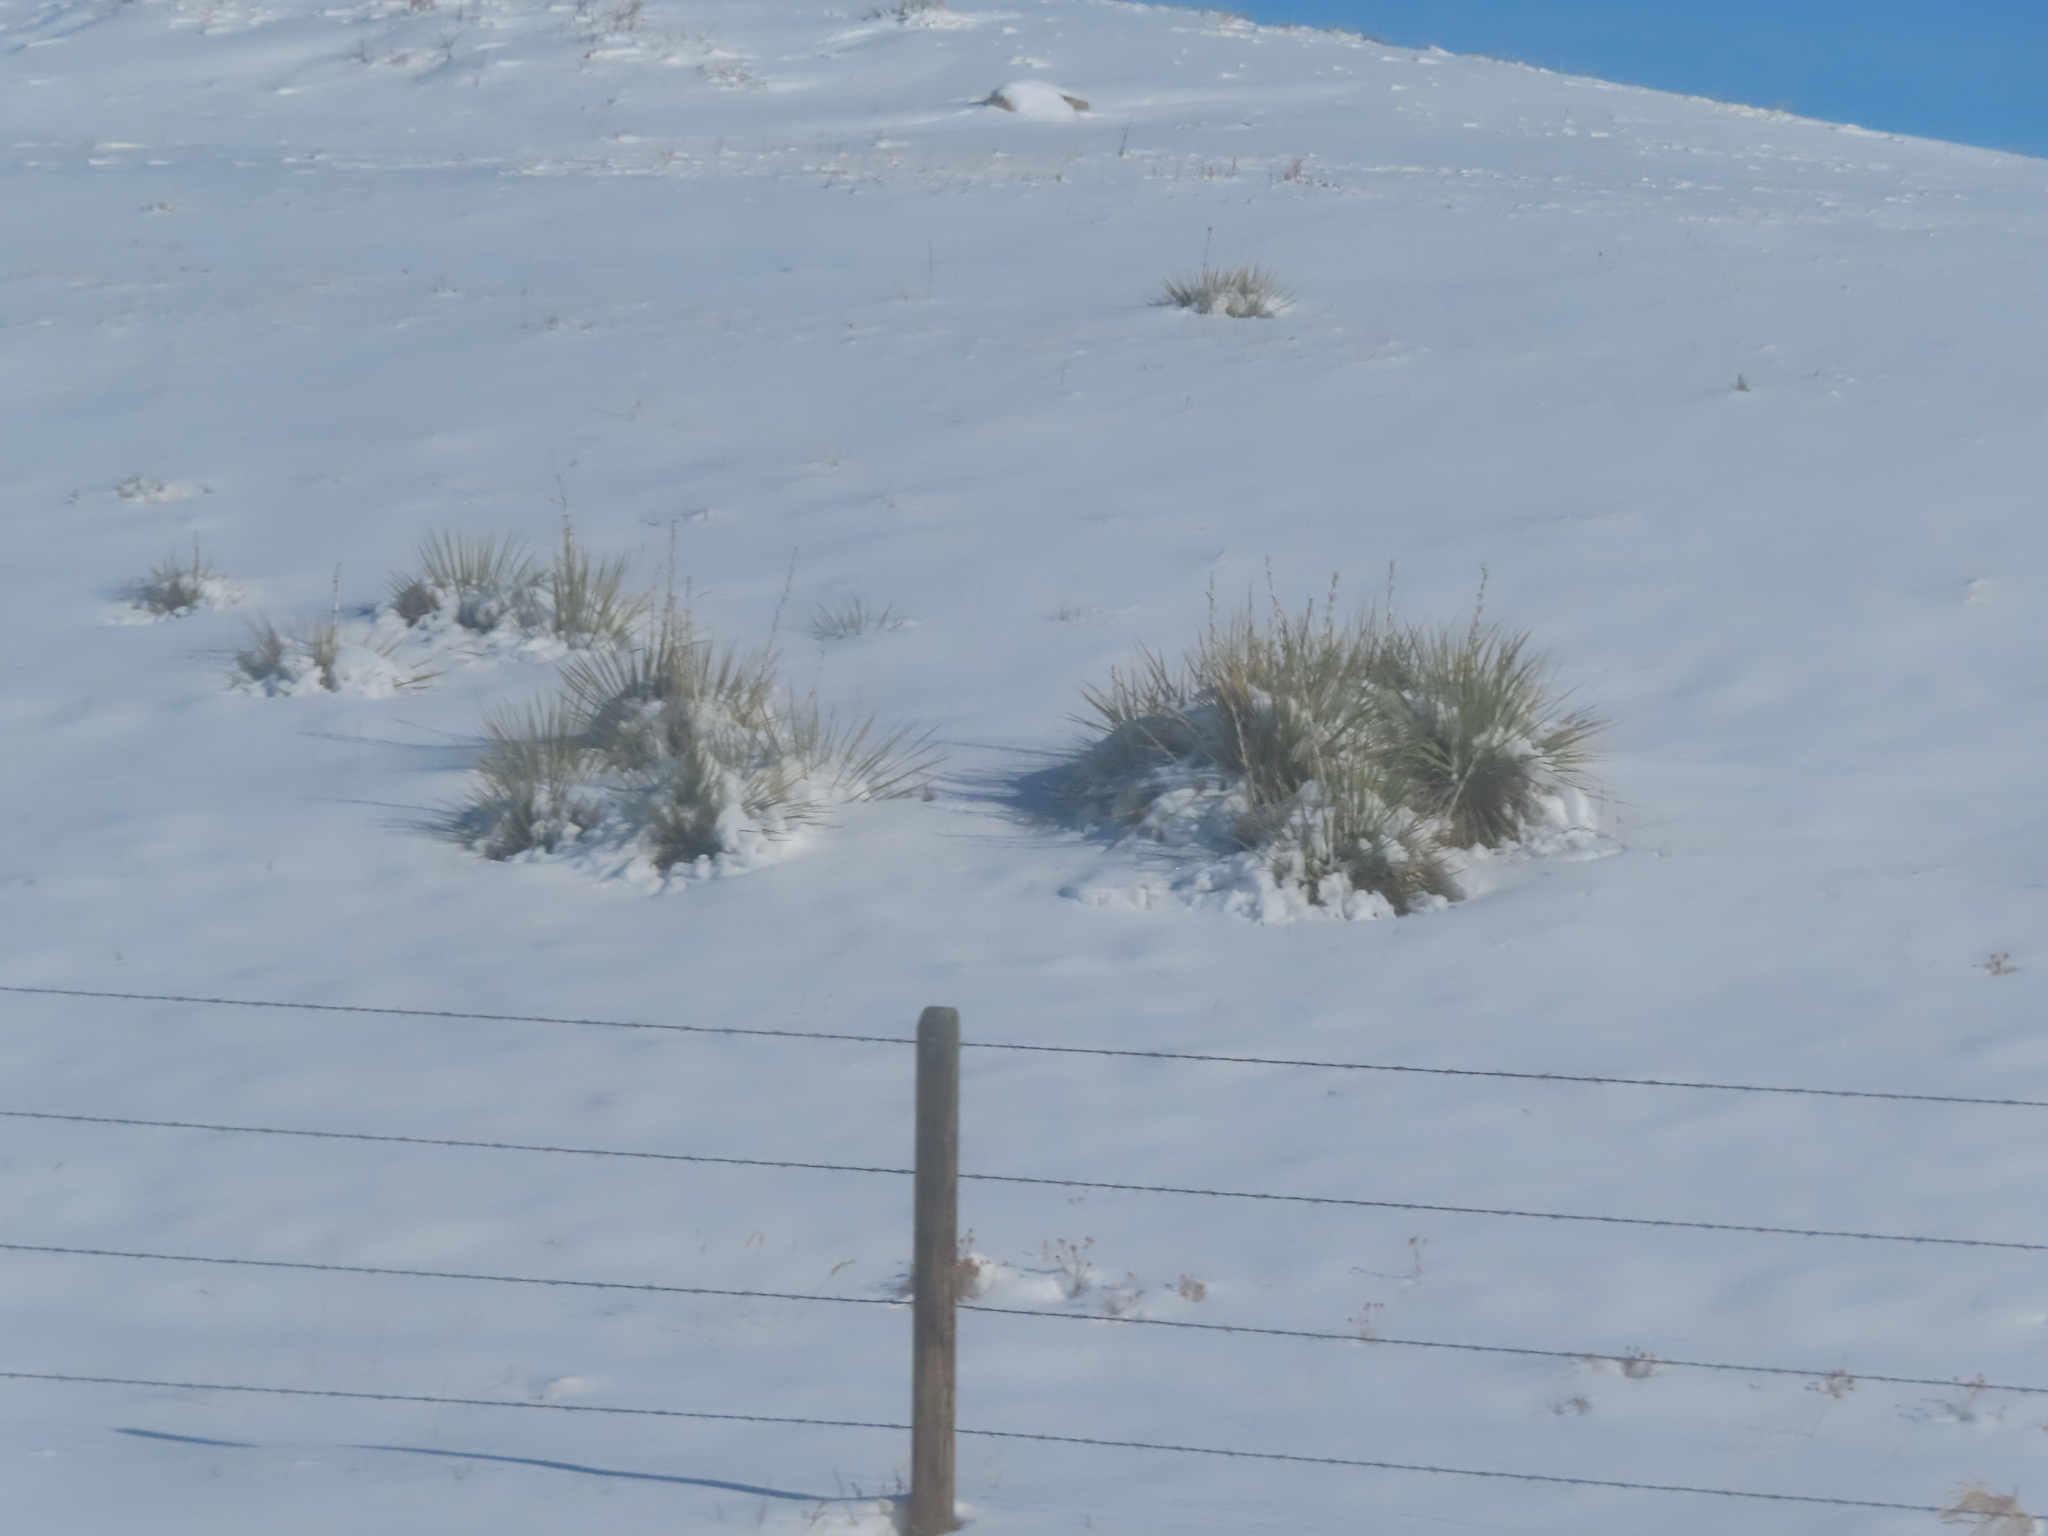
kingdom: Plantae
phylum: Tracheophyta
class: Liliopsida
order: Asparagales
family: Asparagaceae
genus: Yucca
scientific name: Yucca glauca
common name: Great plains yucca
